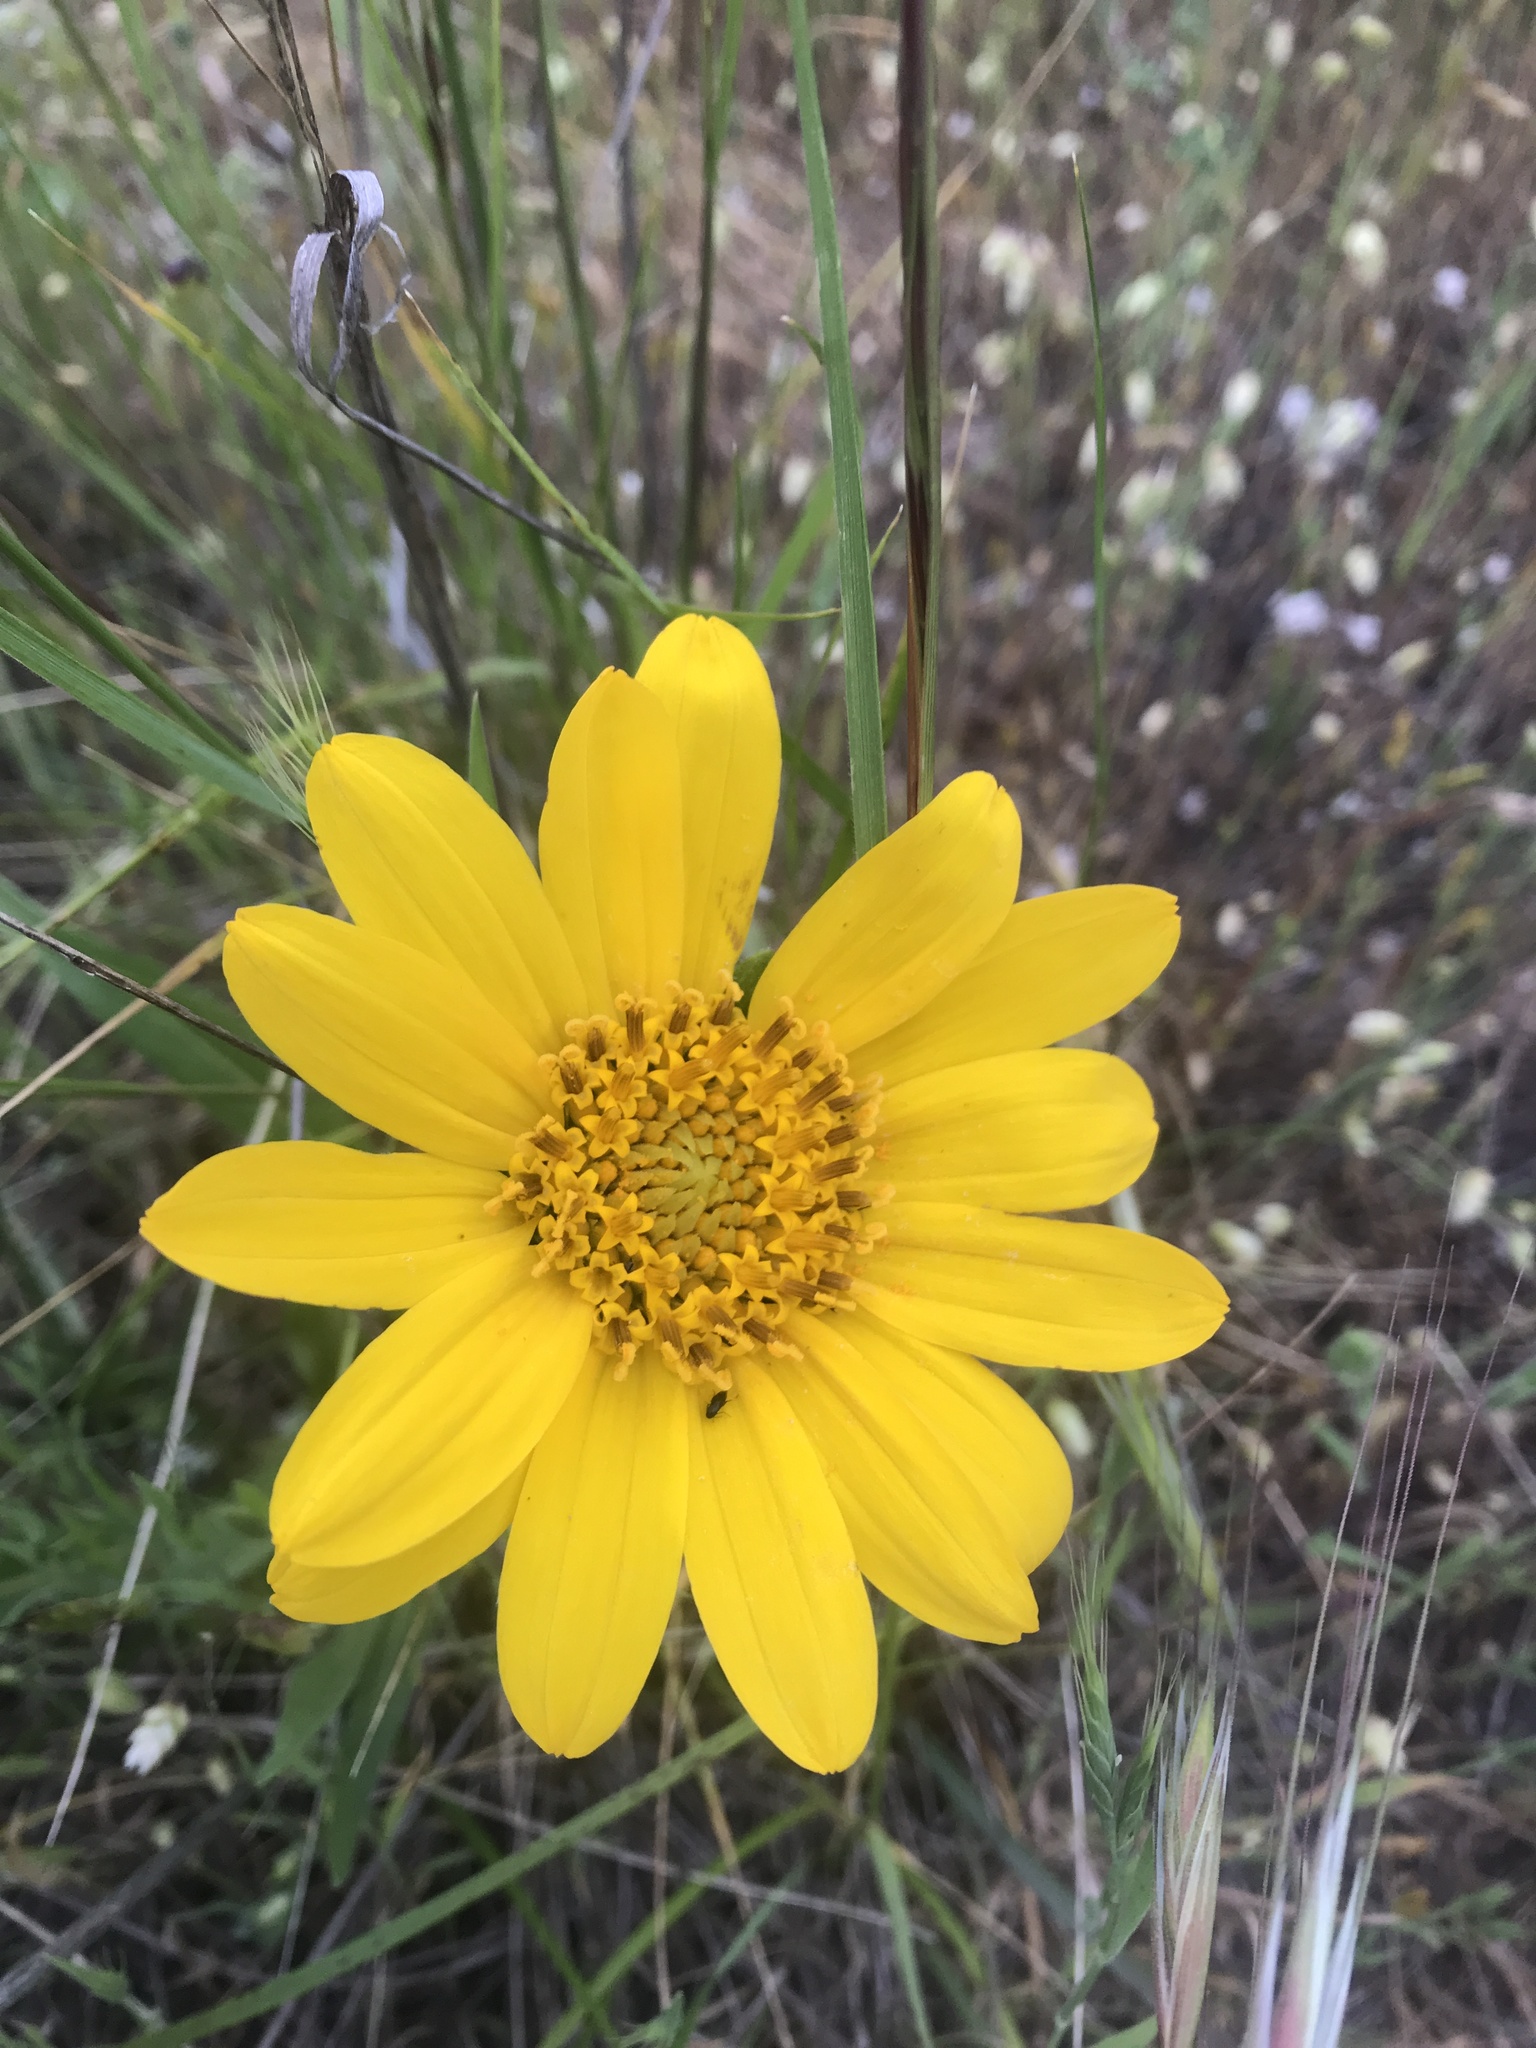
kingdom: Plantae
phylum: Tracheophyta
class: Magnoliopsida
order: Asterales
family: Asteraceae
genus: Wyethia
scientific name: Wyethia angustifolia
